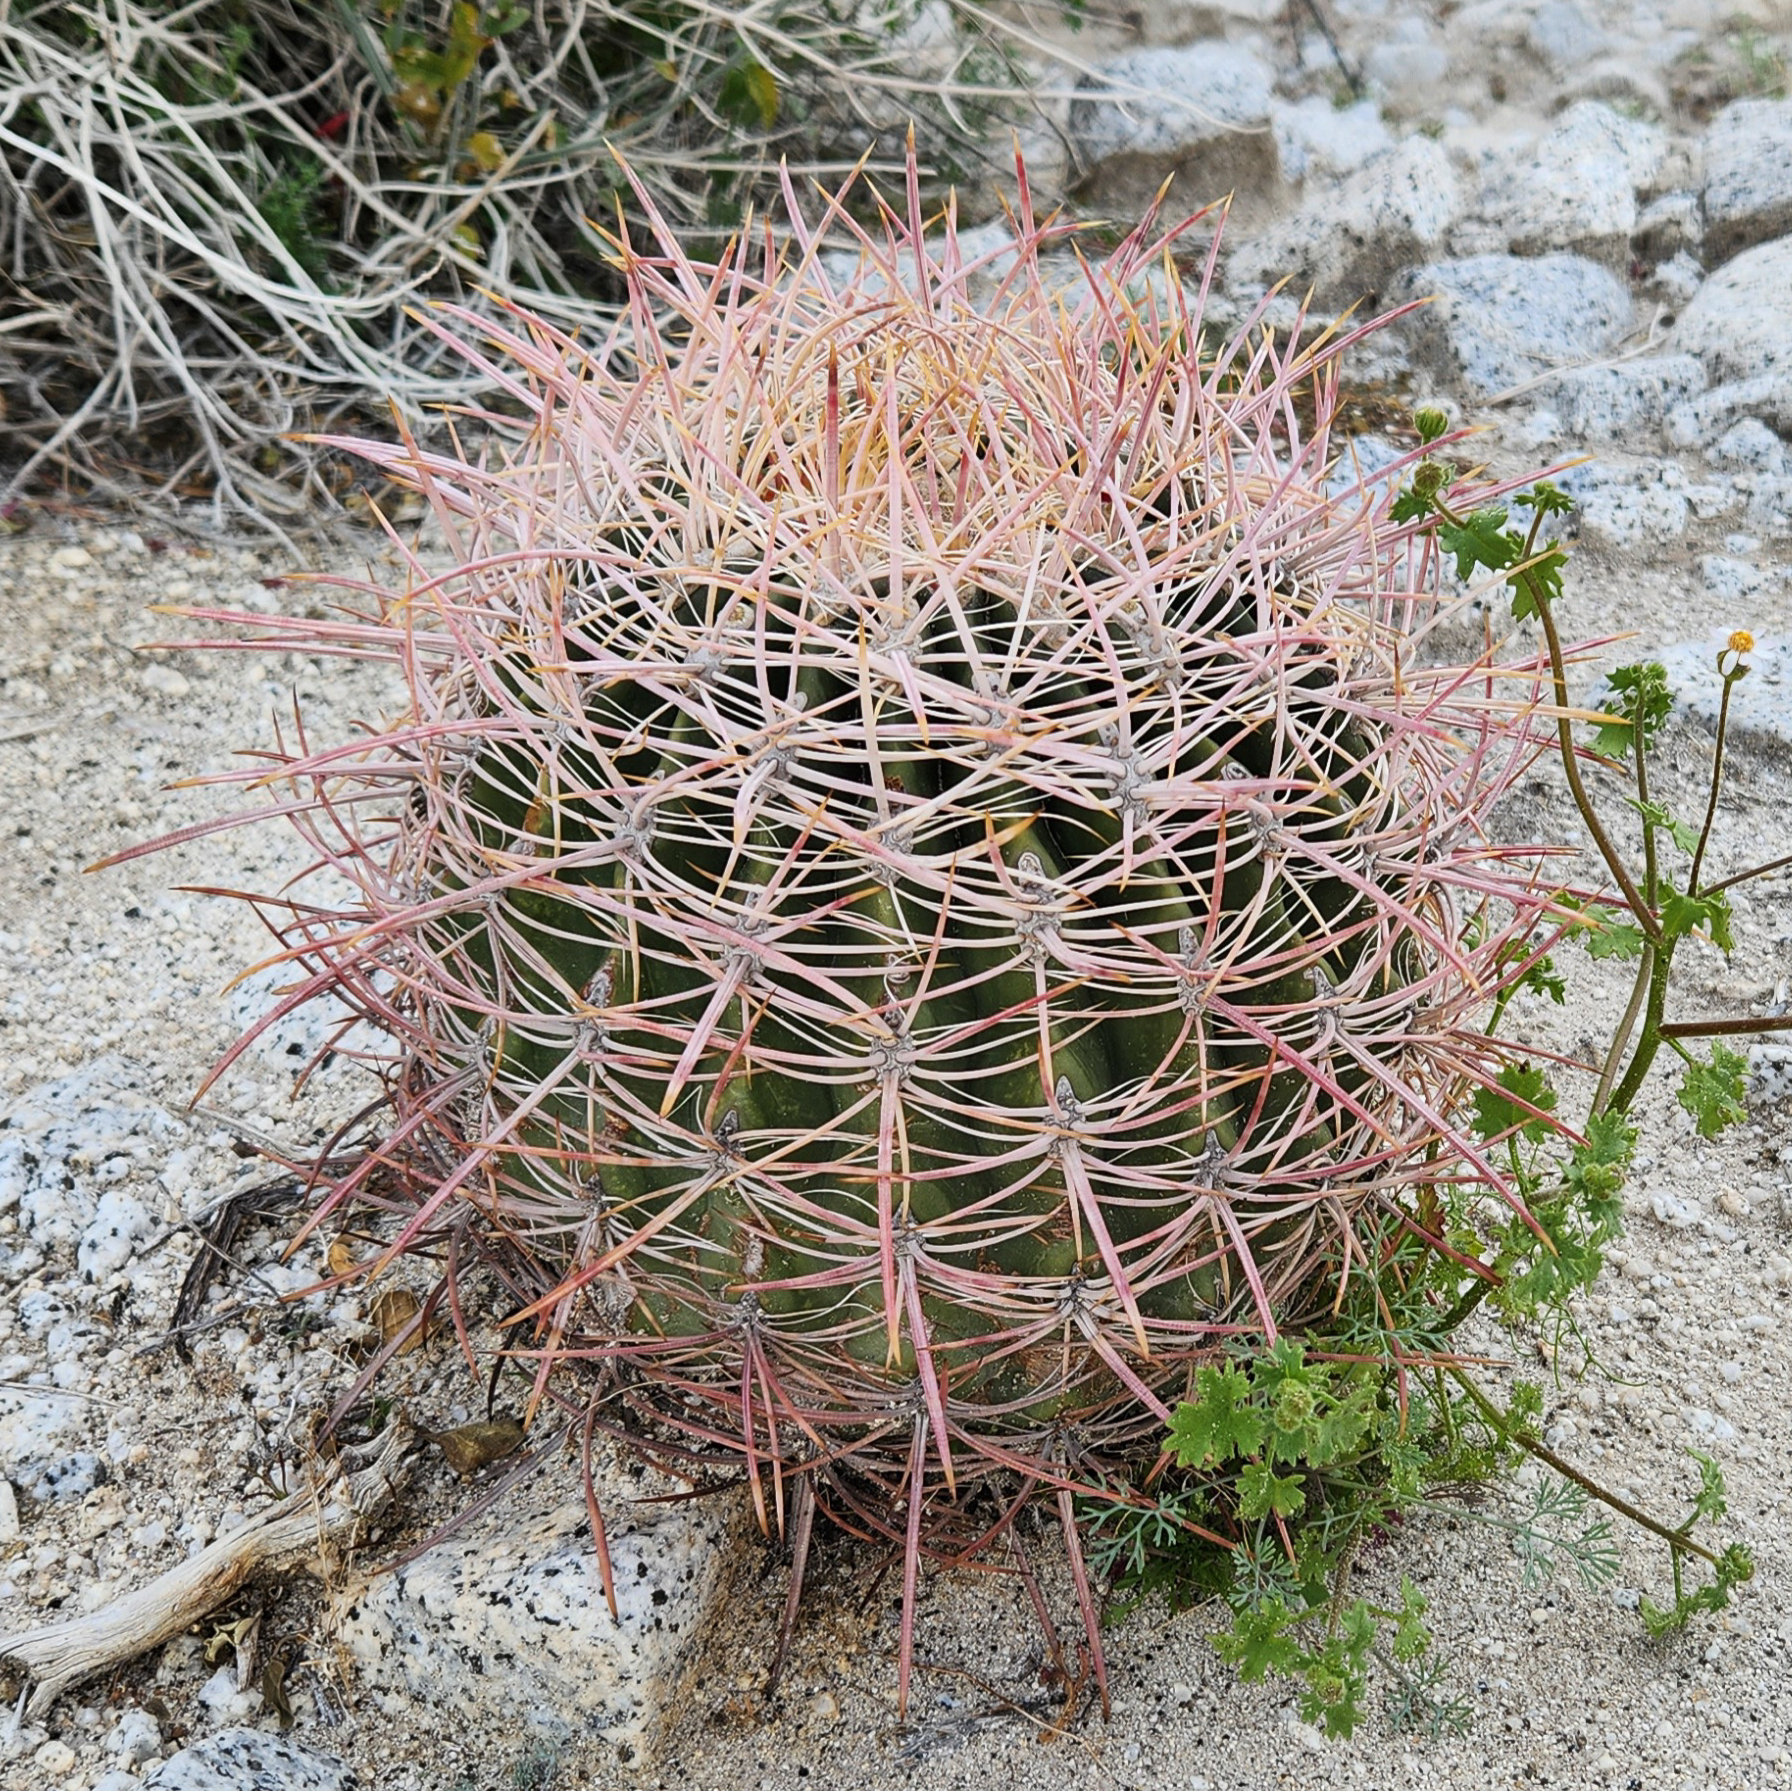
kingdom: Plantae
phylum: Tracheophyta
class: Magnoliopsida
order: Caryophyllales
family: Cactaceae
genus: Ferocactus
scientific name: Ferocactus cylindraceus
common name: California barrel cactus
